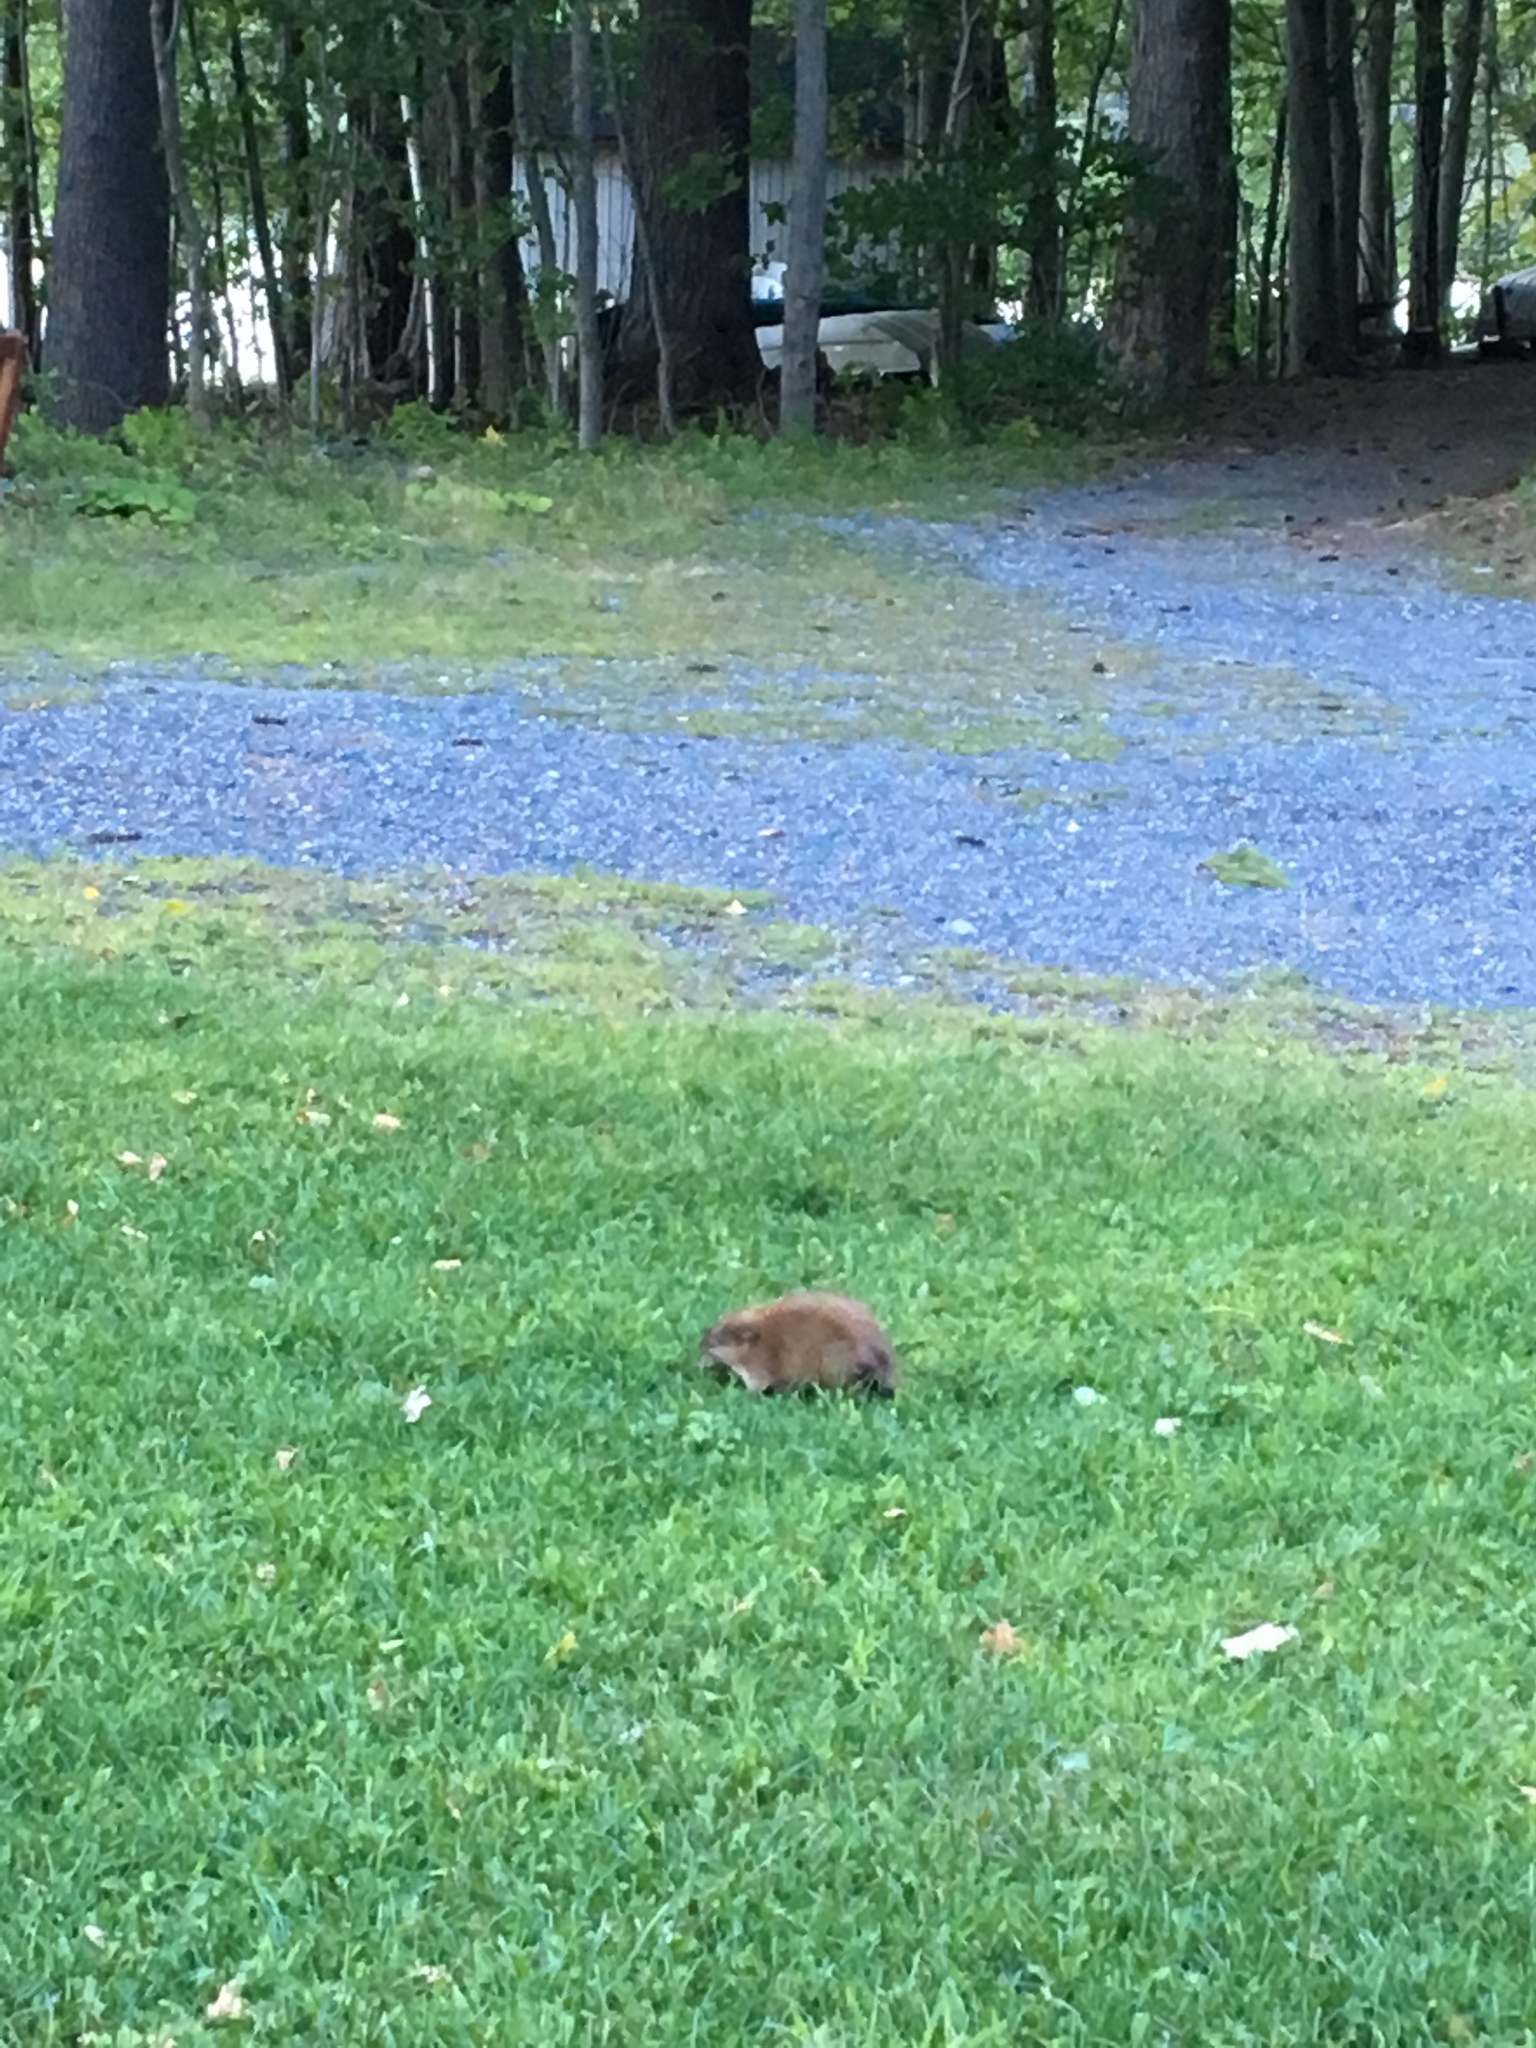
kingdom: Animalia
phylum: Chordata
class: Mammalia
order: Rodentia
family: Cricetidae
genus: Ondatra
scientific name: Ondatra zibethicus
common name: Muskrat
